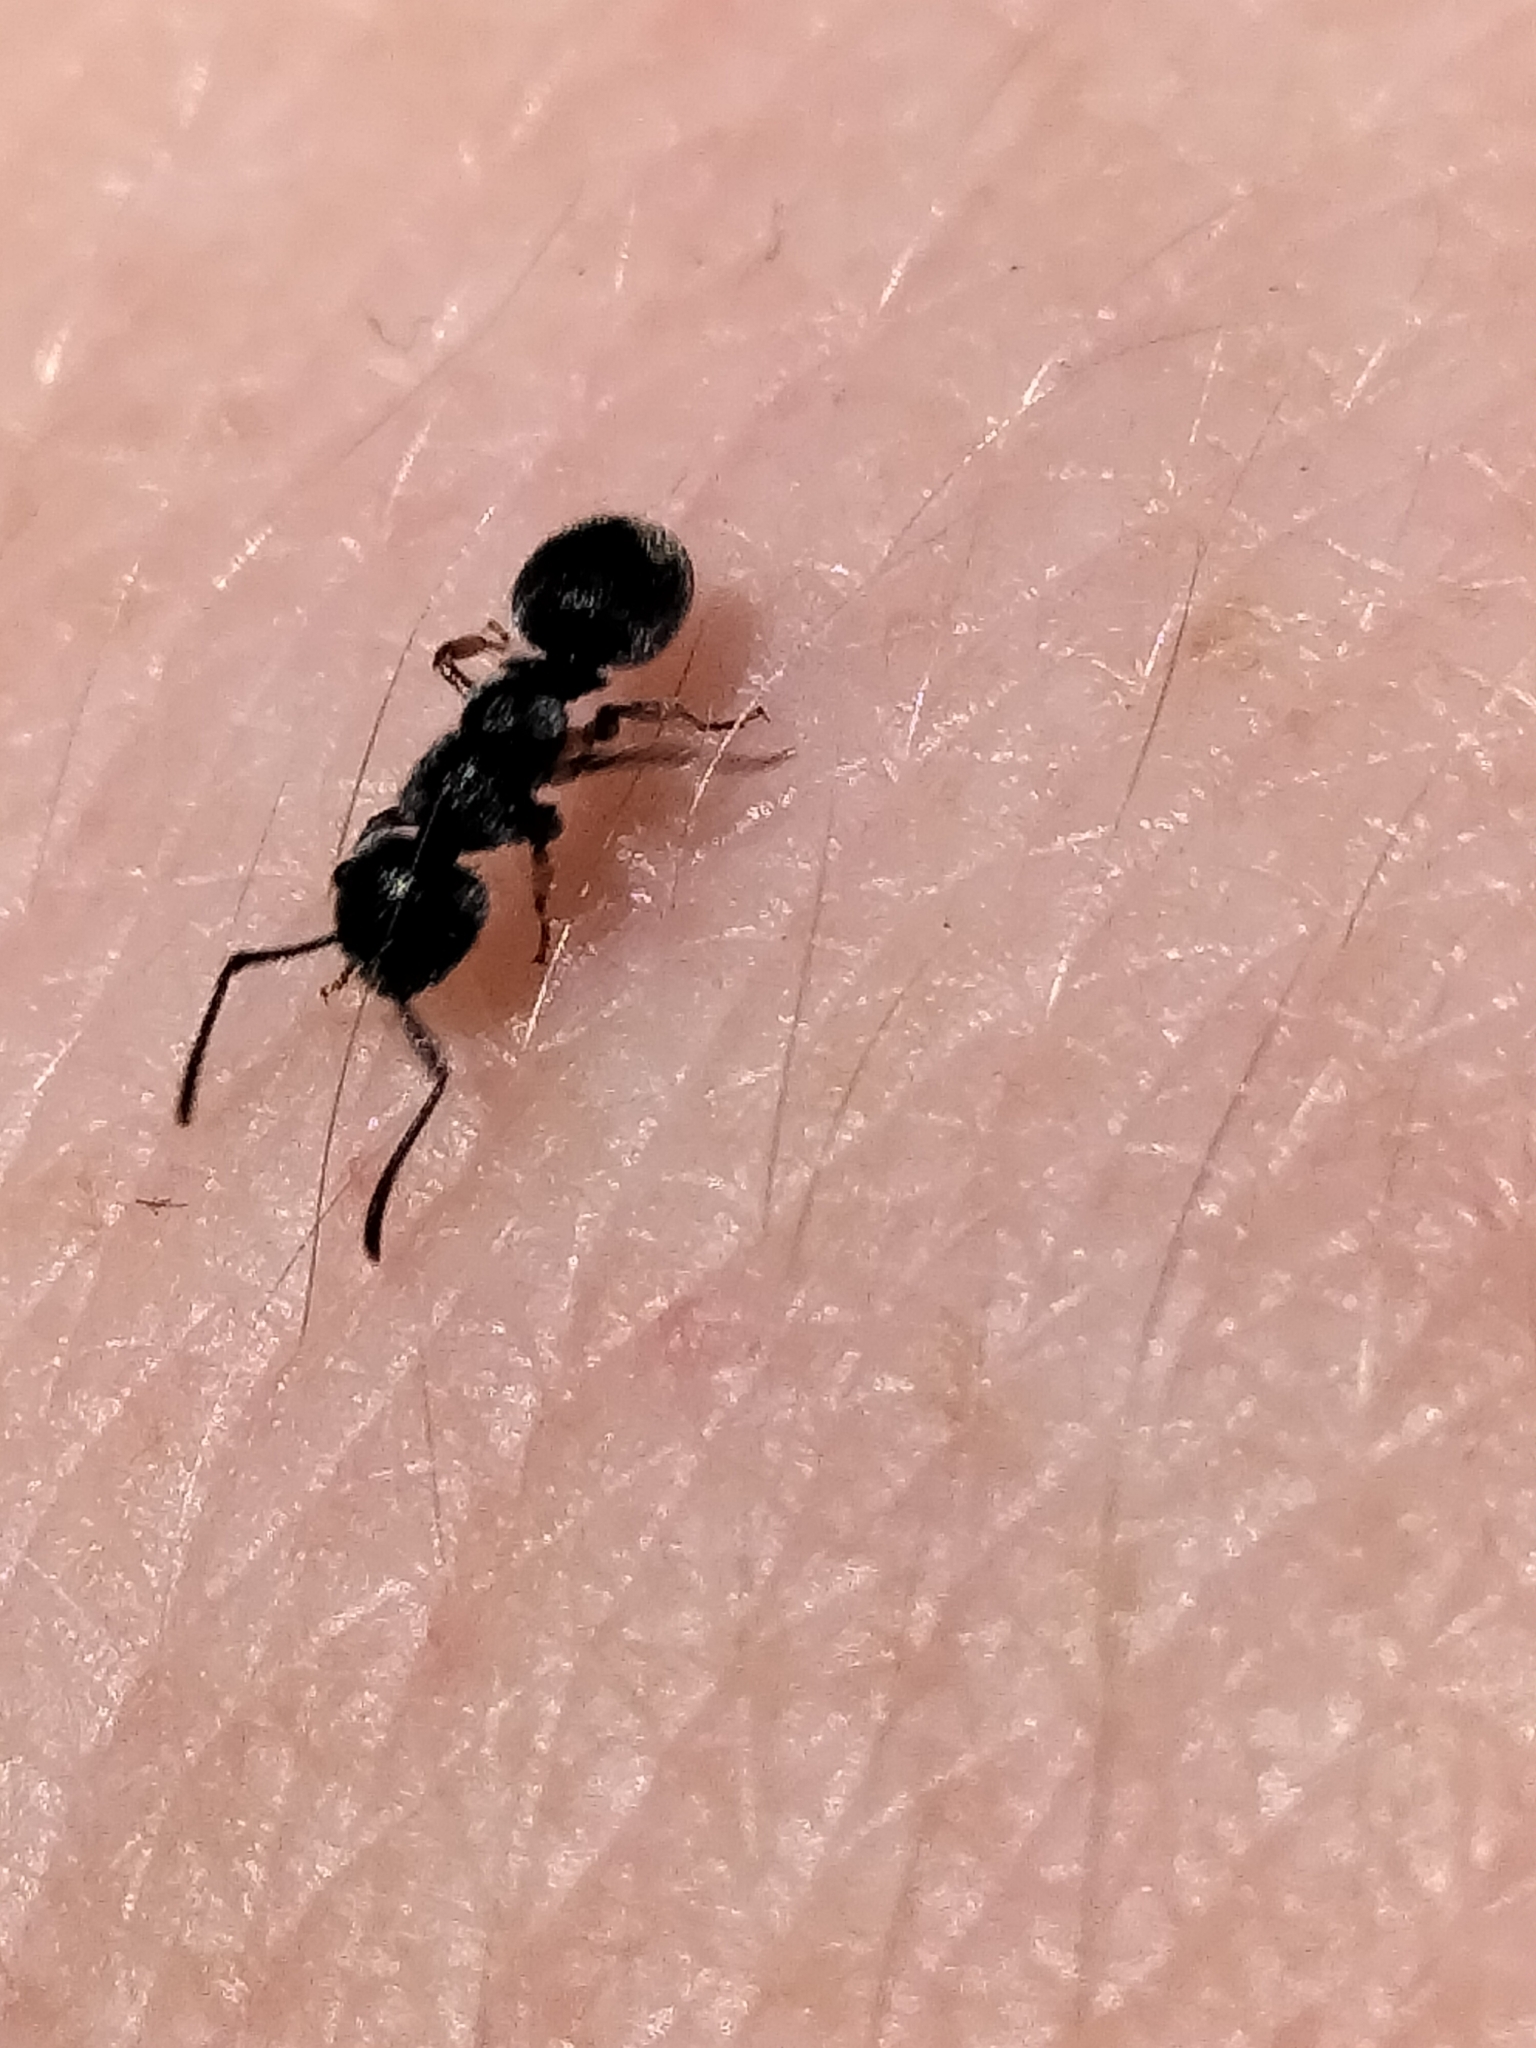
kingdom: Animalia
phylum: Arthropoda
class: Insecta
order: Hymenoptera
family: Formicidae
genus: Echinopla
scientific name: Echinopla australis
